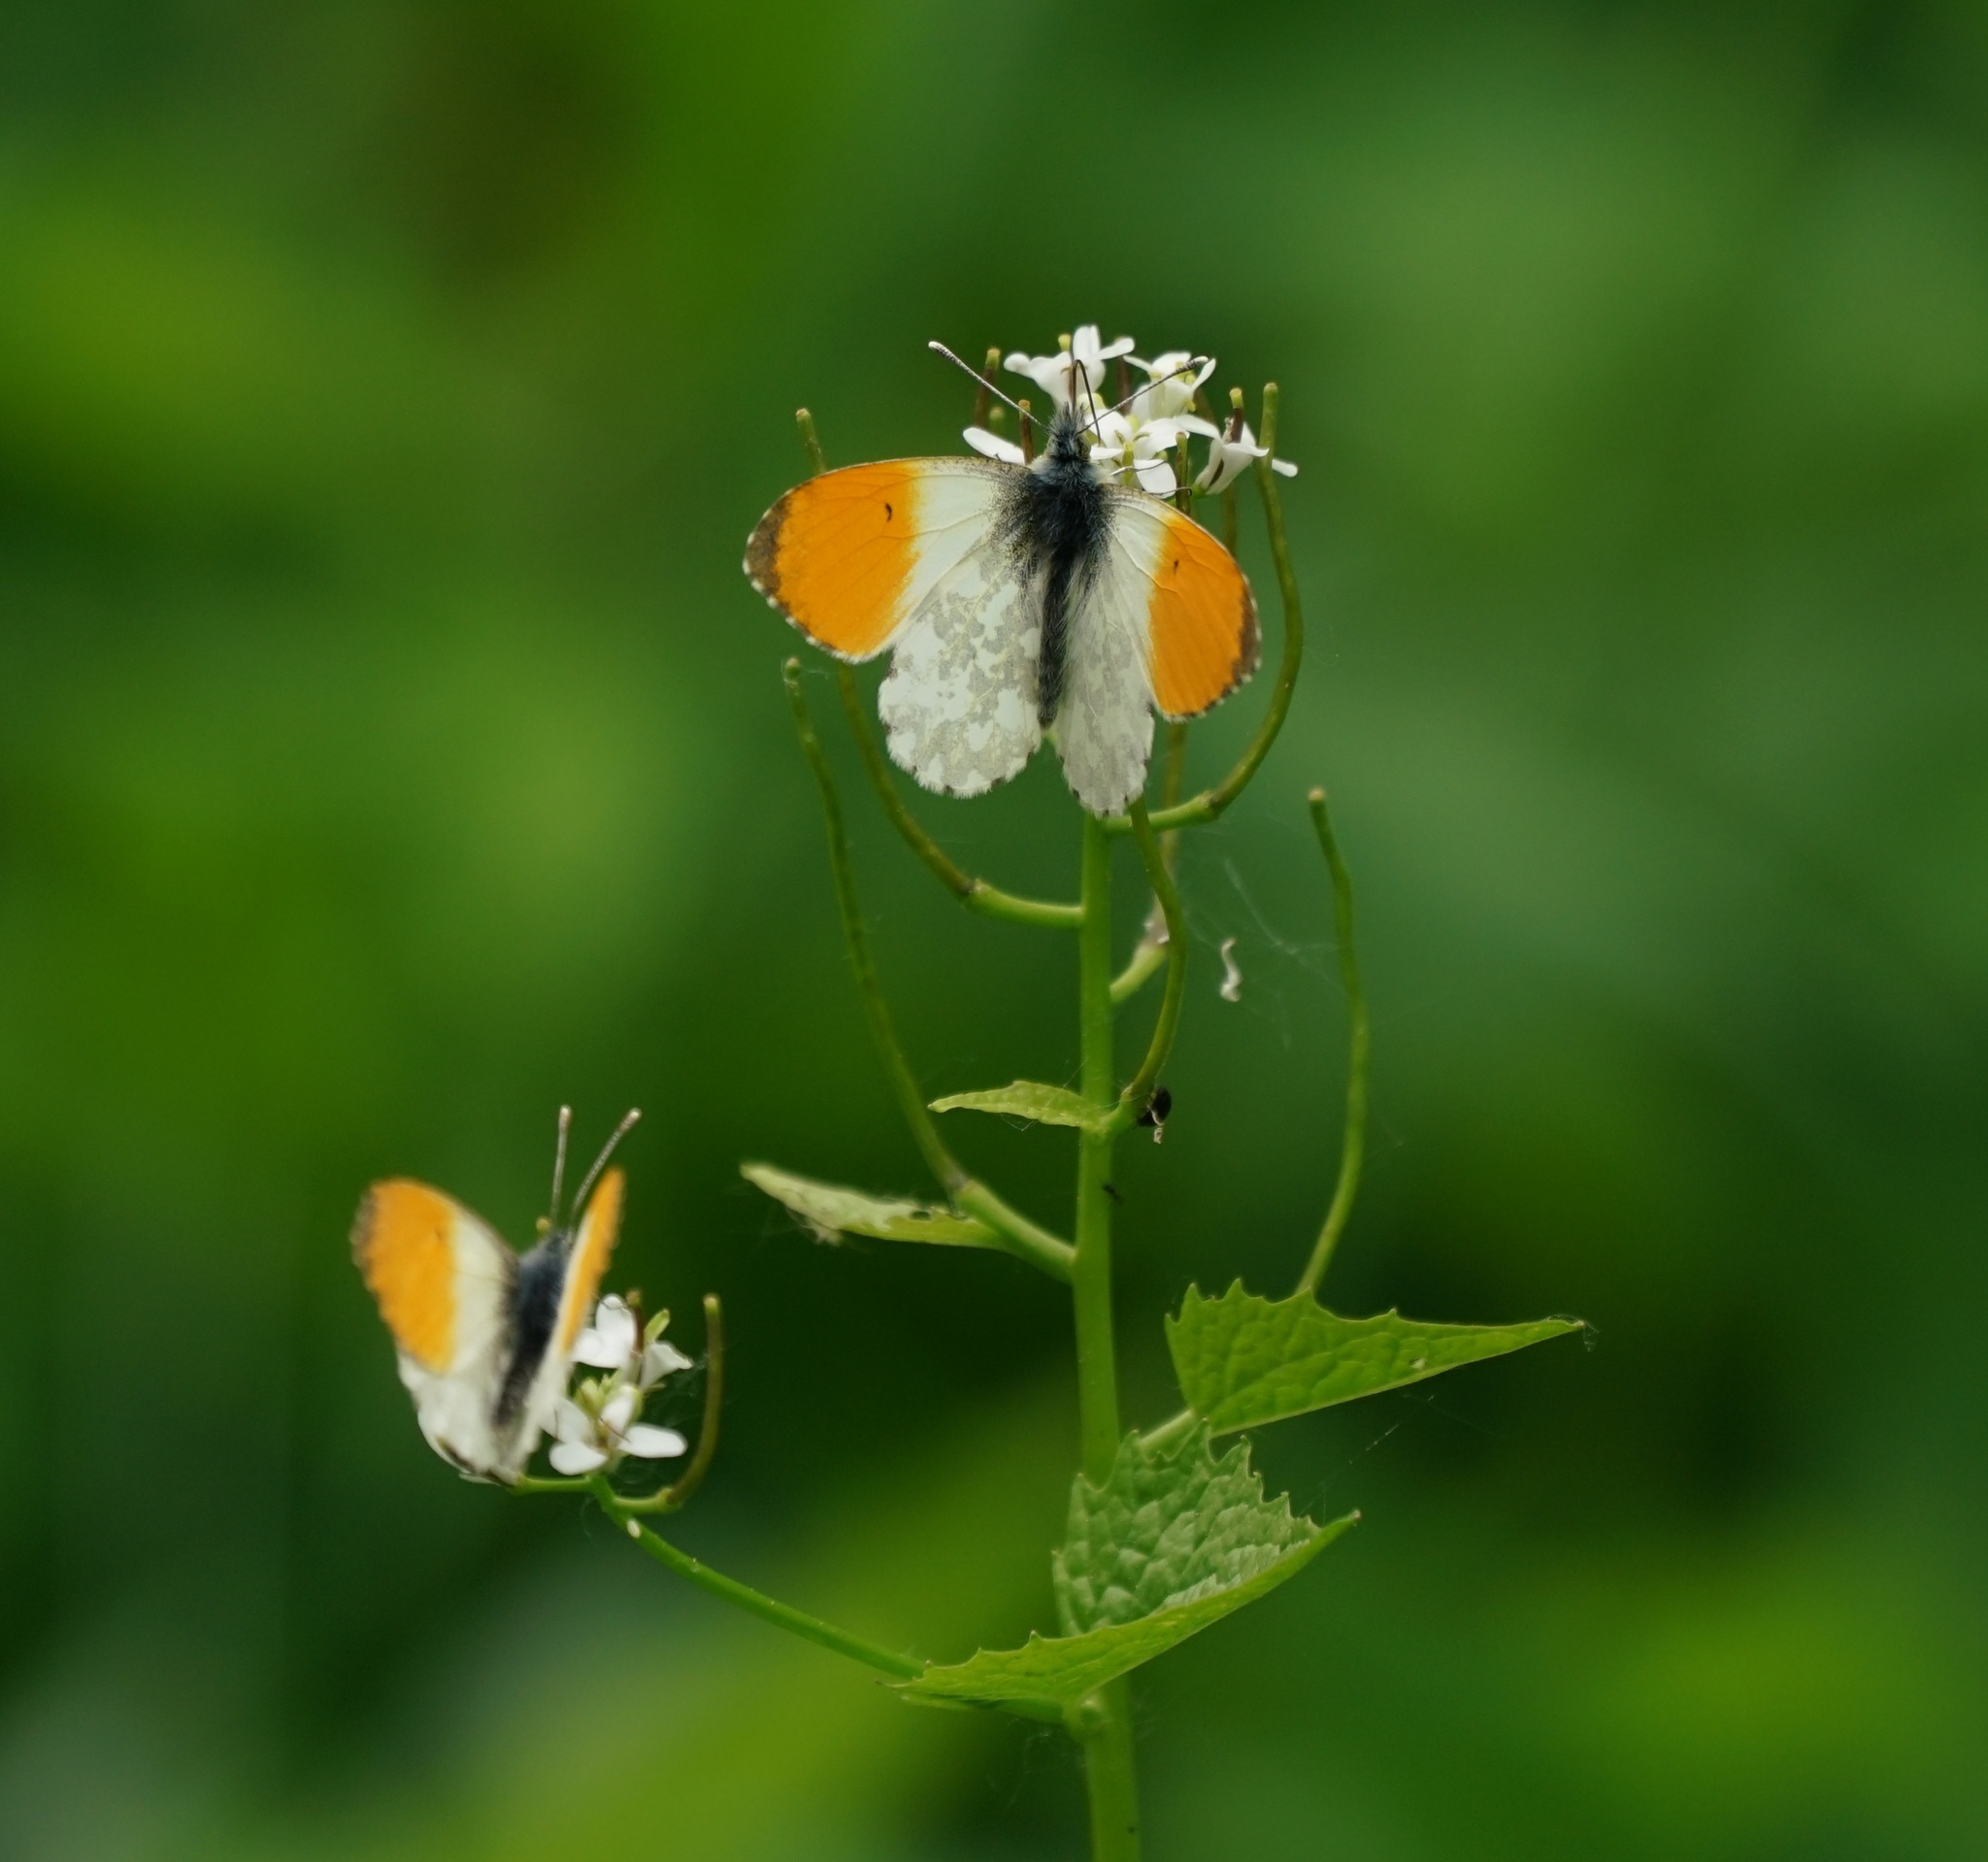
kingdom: Animalia
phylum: Arthropoda
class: Insecta
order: Lepidoptera
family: Pieridae
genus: Anthocharis
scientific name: Anthocharis cardamines
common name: Orange-tip
